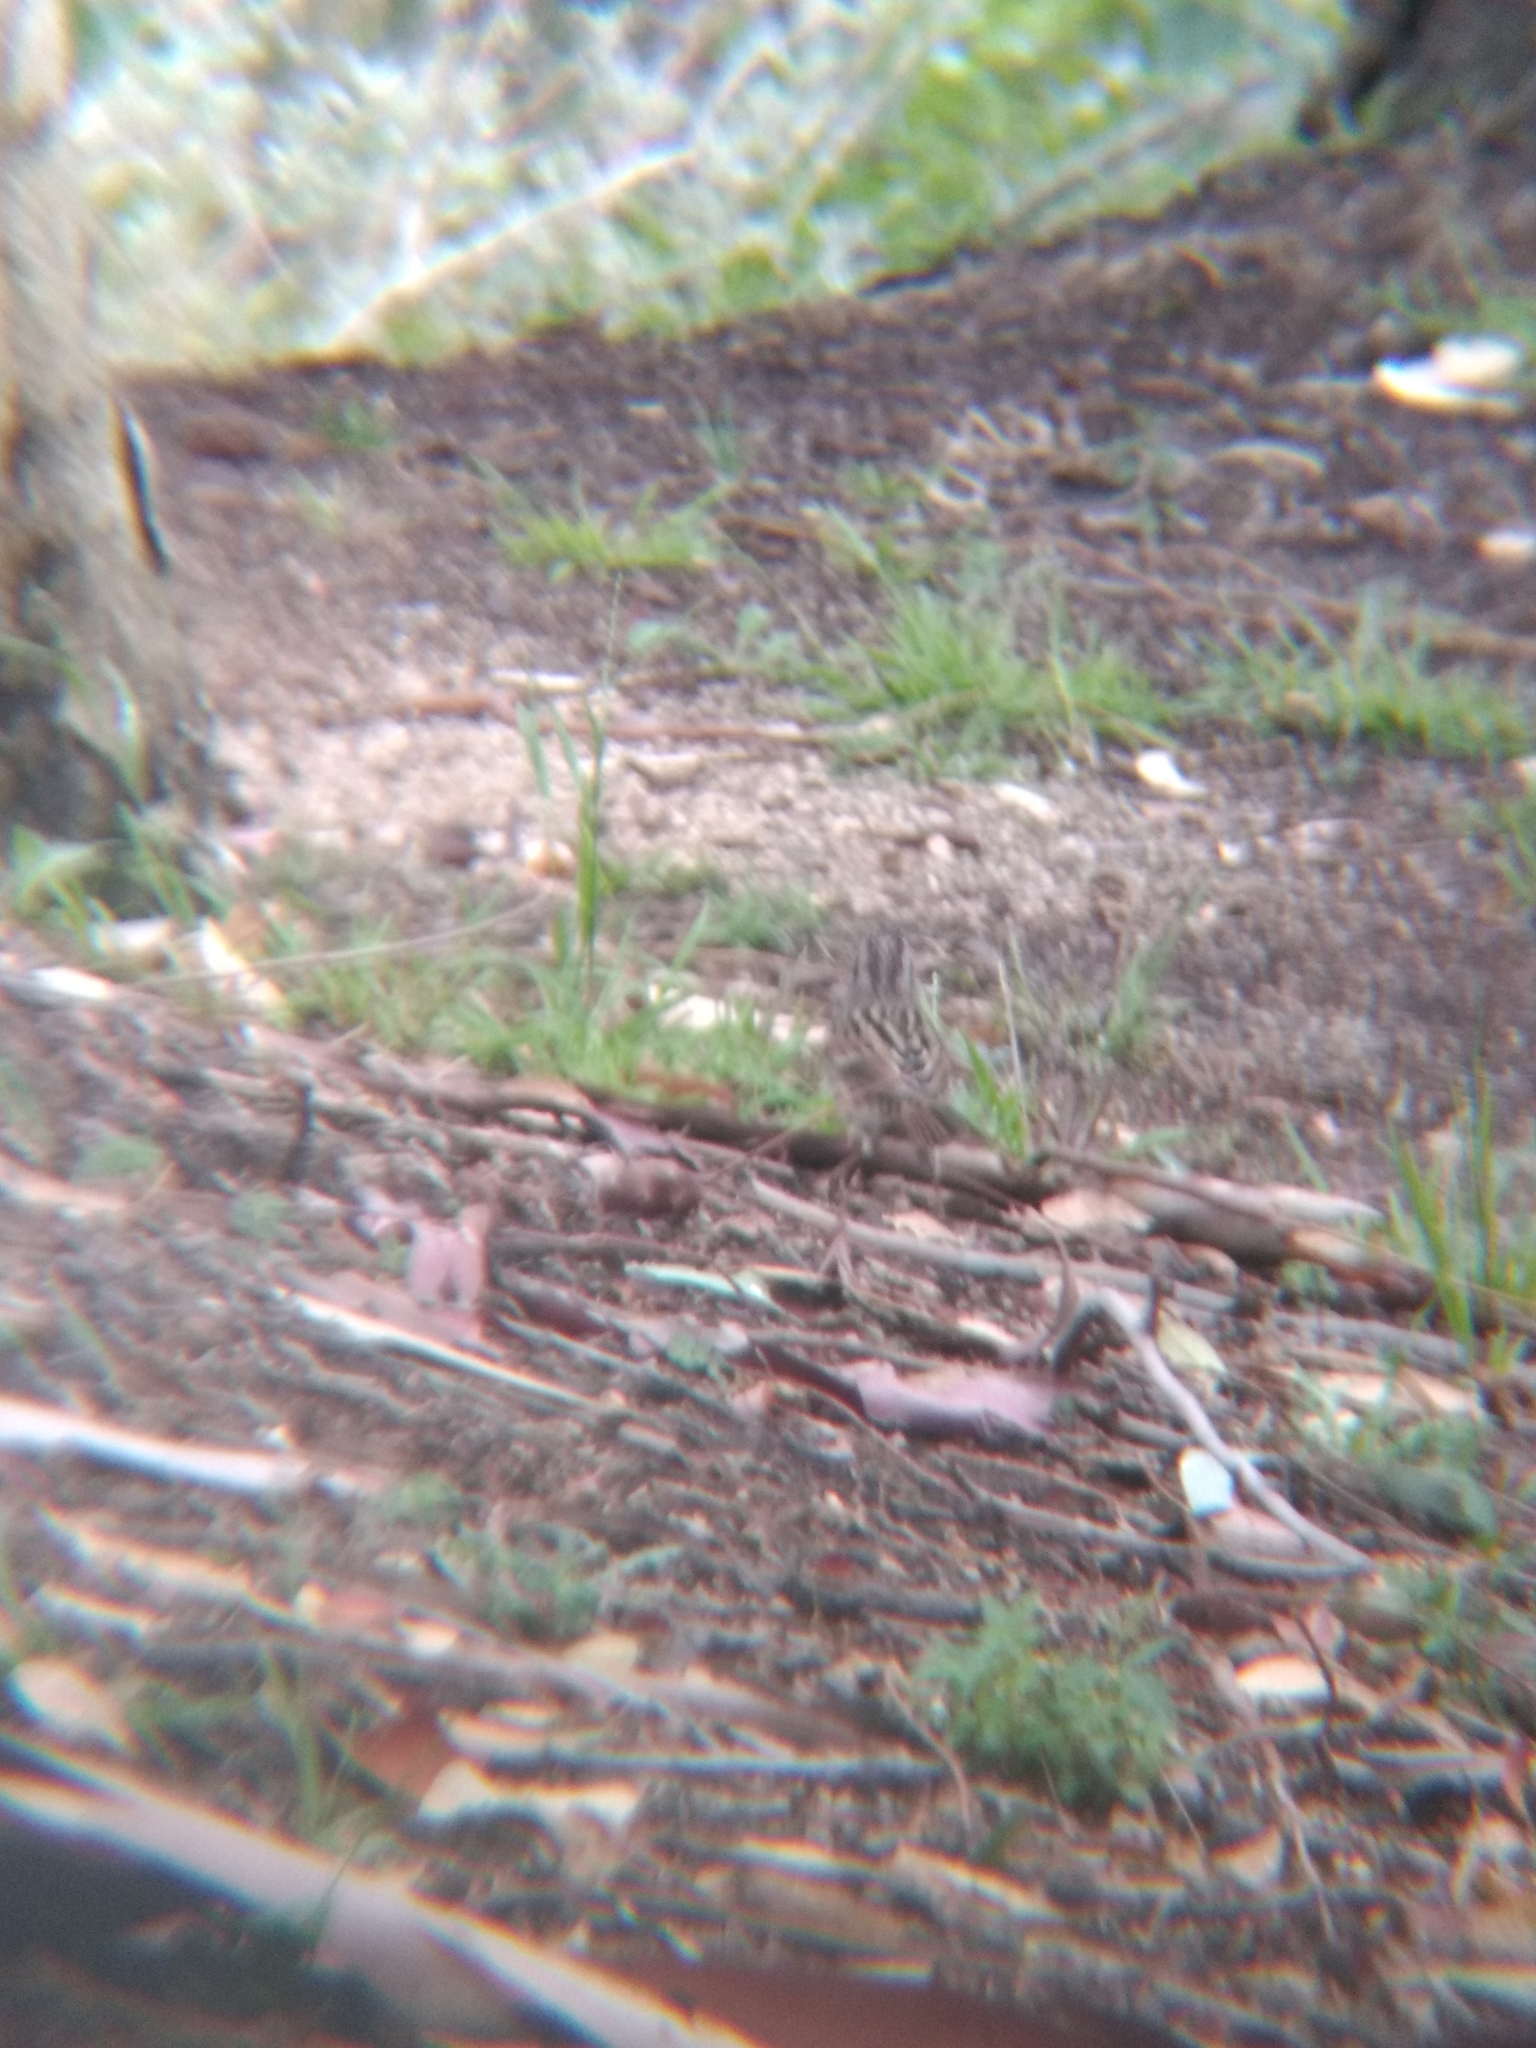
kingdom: Animalia
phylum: Chordata
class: Aves
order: Passeriformes
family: Passerellidae
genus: Melospiza
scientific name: Melospiza melodia
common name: Song sparrow
